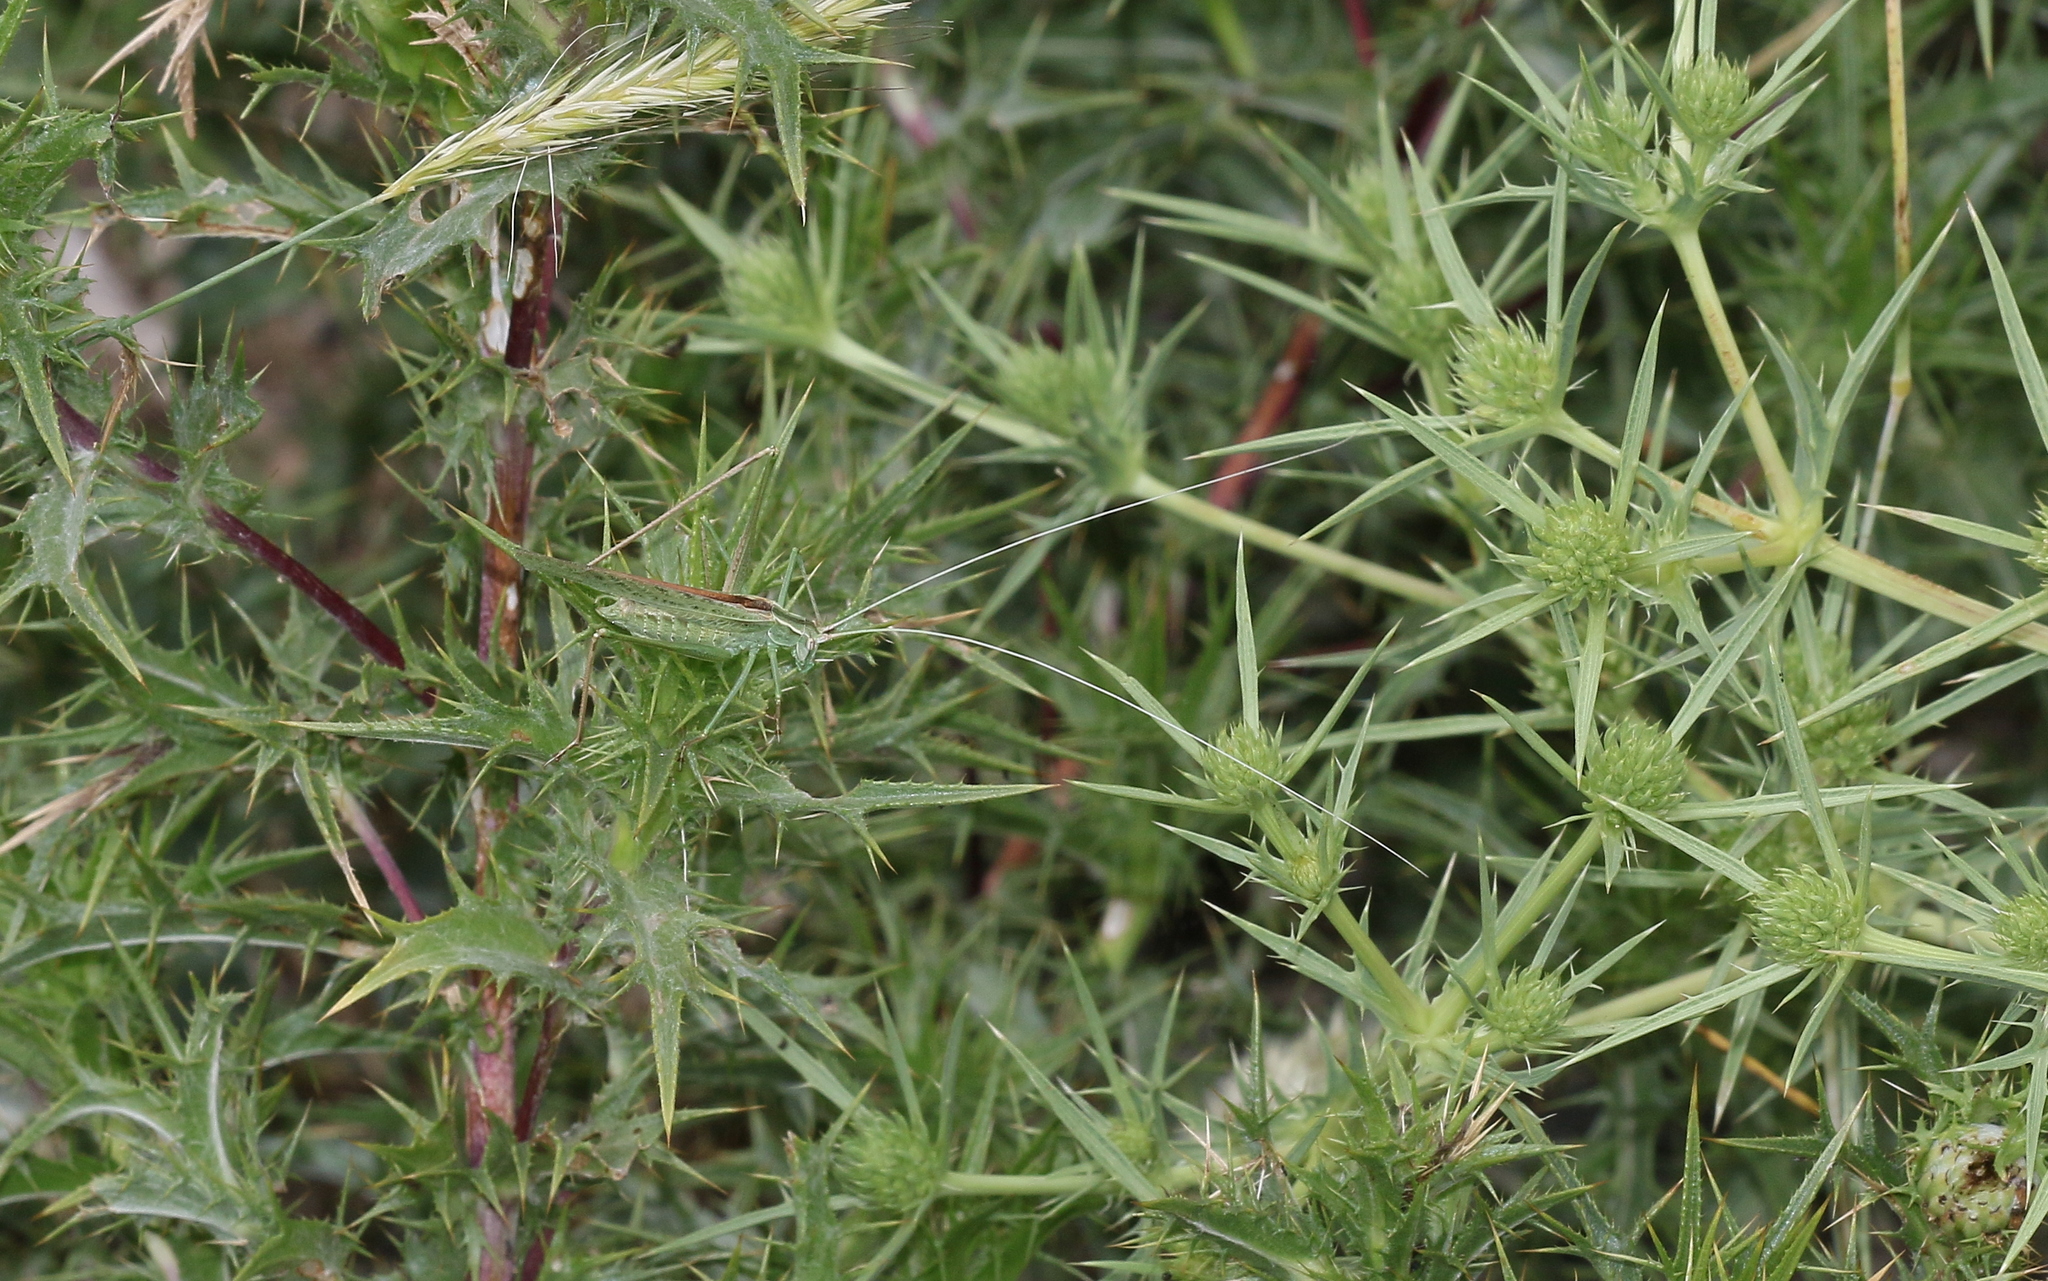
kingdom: Animalia
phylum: Arthropoda
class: Insecta
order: Orthoptera
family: Tettigoniidae
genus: Tylopsis
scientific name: Tylopsis lilifolia
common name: Lily bush-cricket
